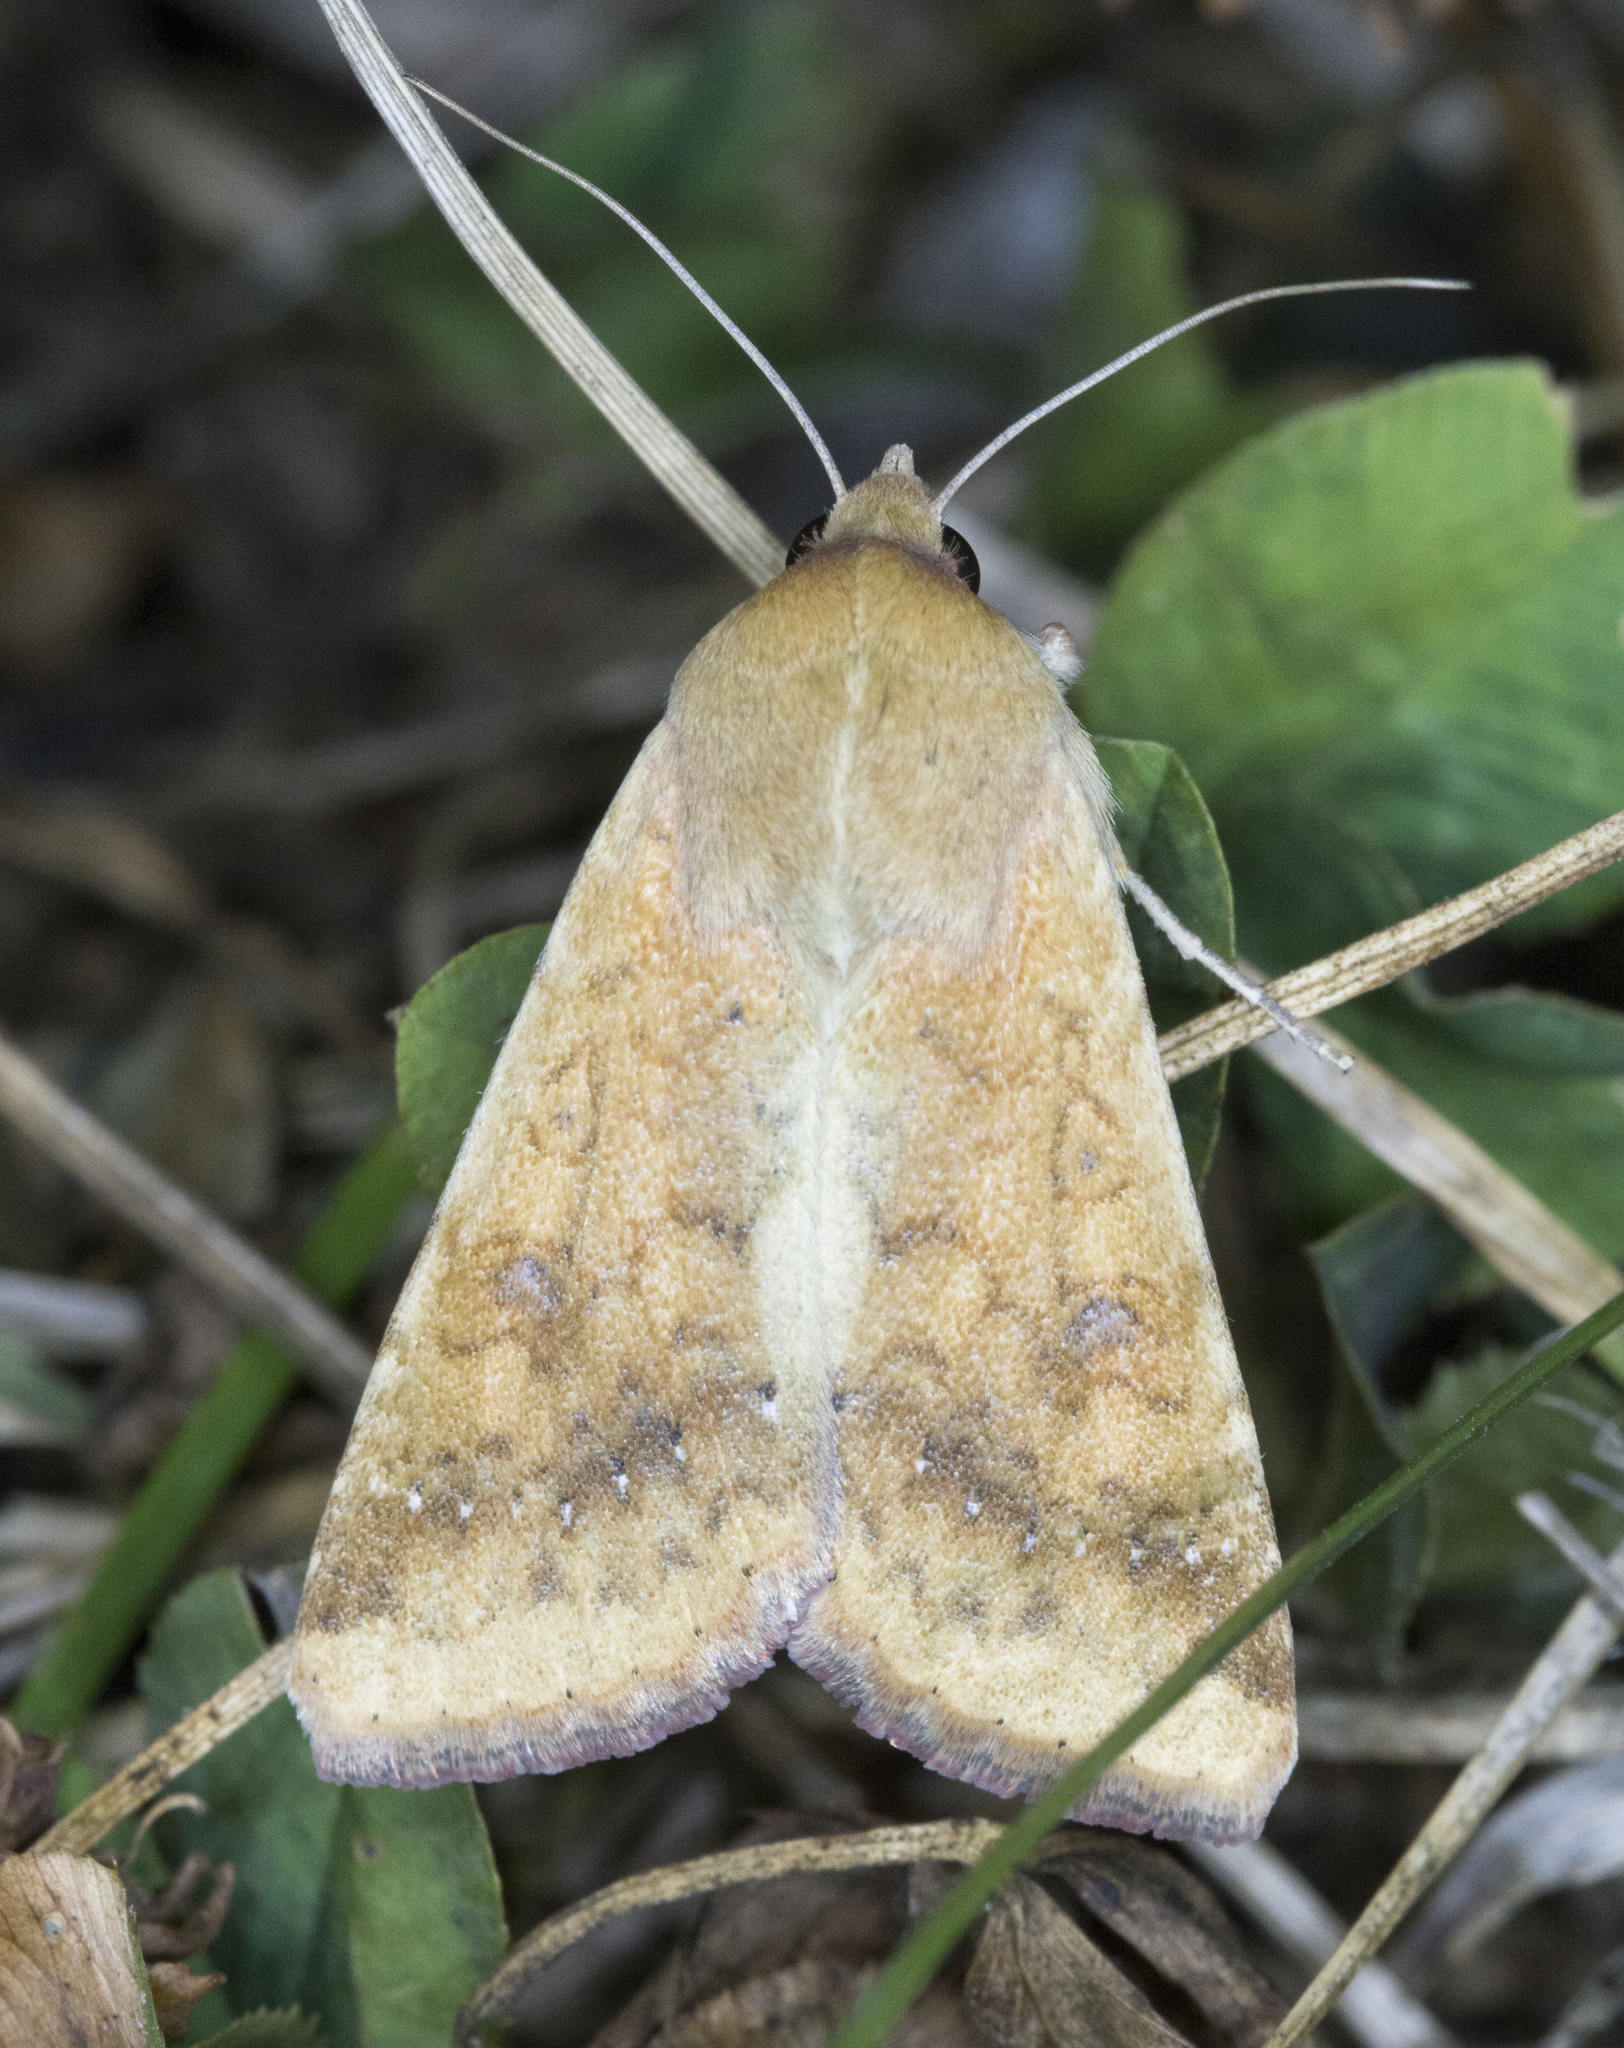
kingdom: Animalia
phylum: Arthropoda
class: Insecta
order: Lepidoptera
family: Noctuidae
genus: Helicoverpa
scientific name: Helicoverpa zea
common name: Bollworm
